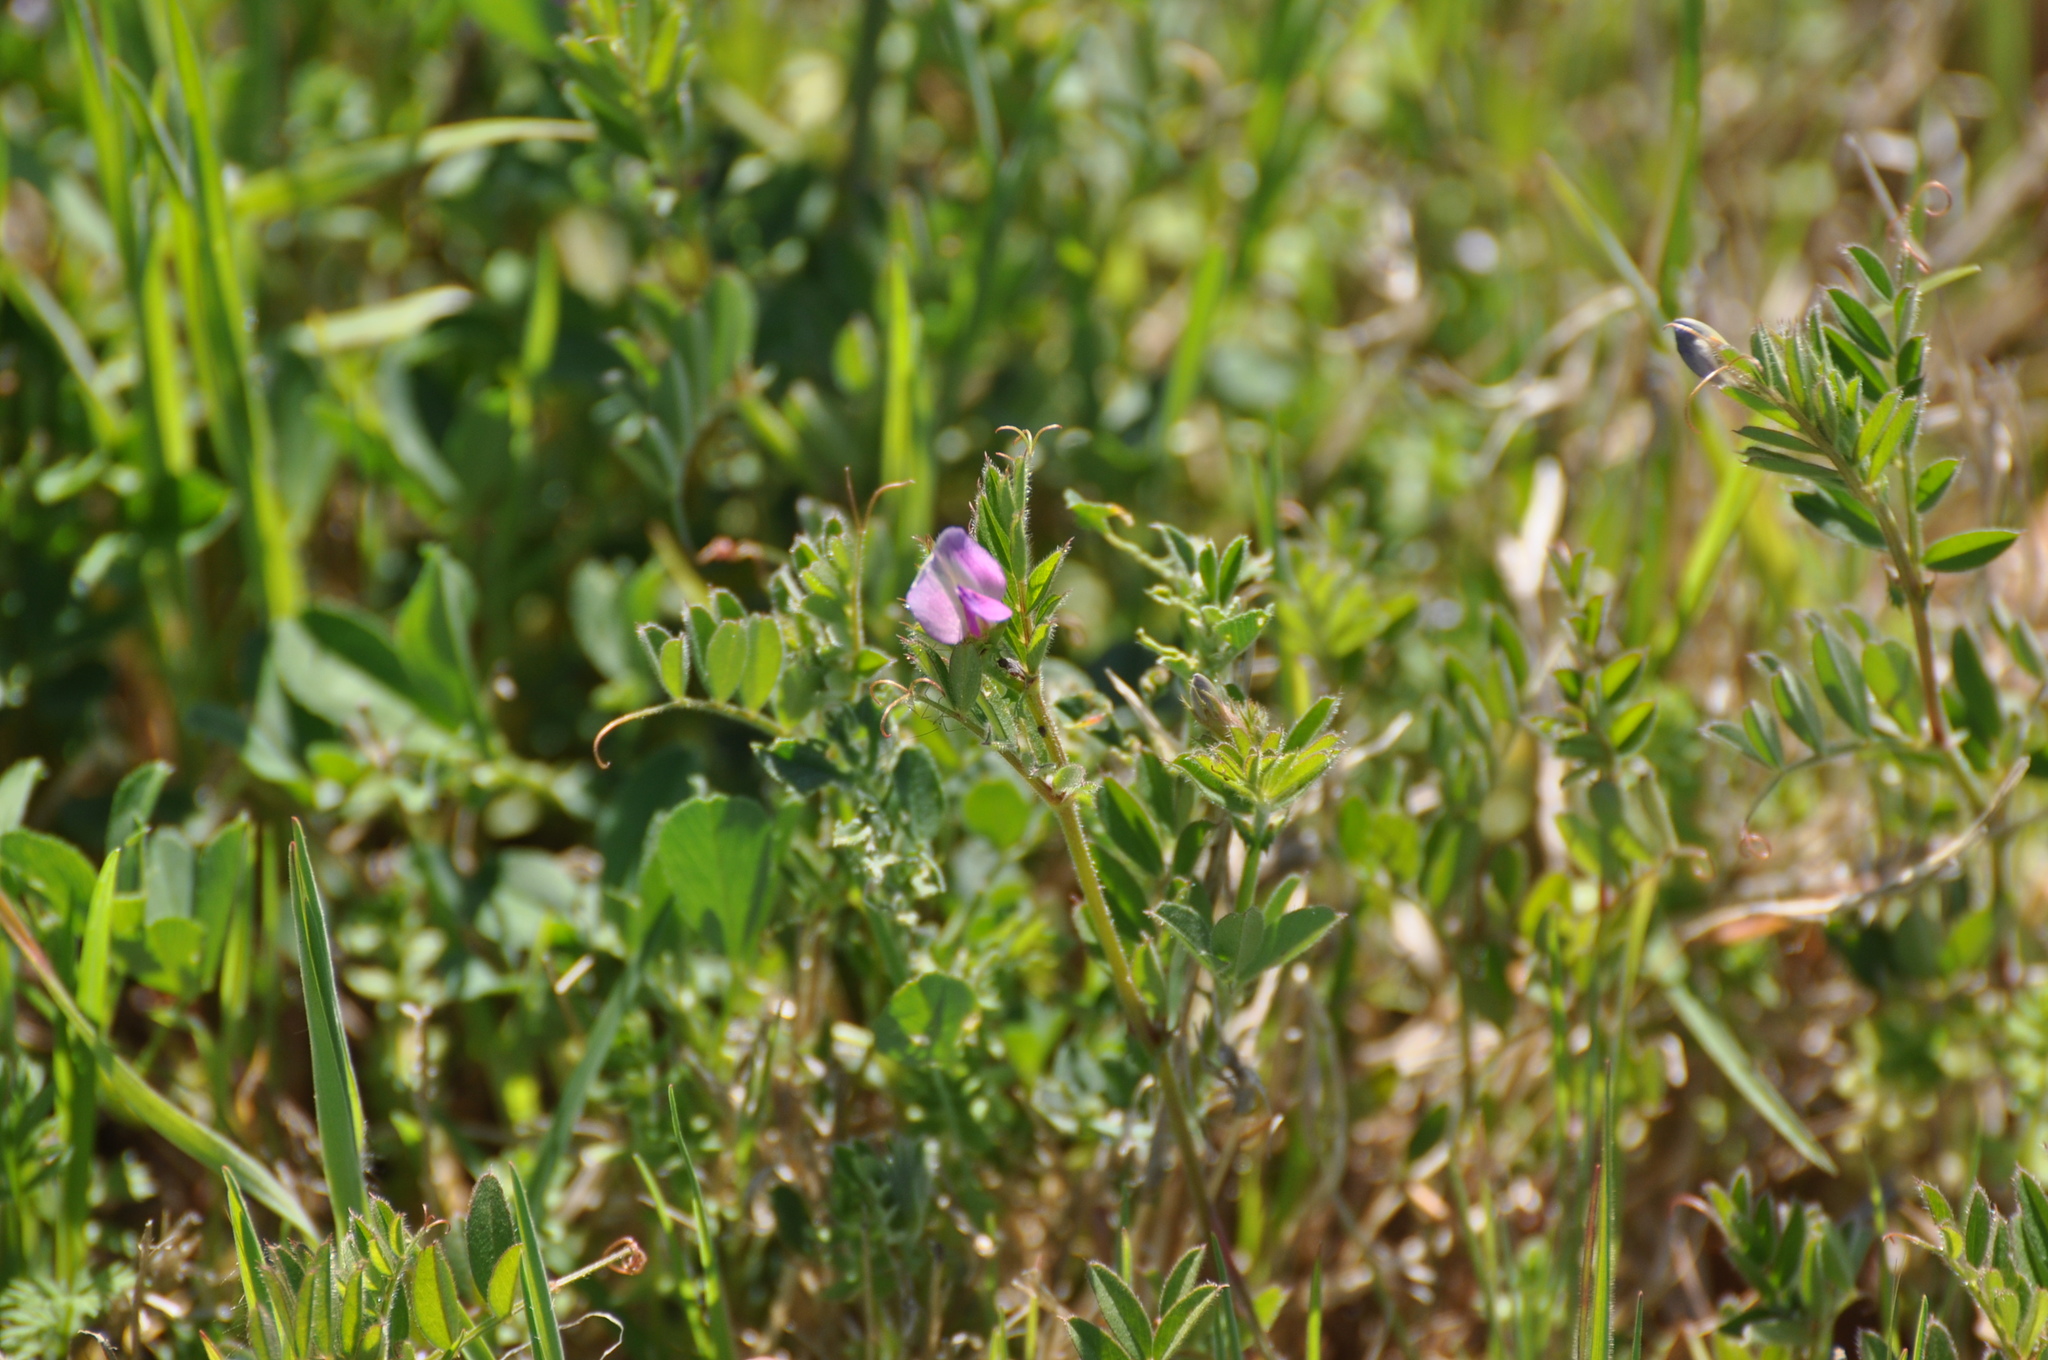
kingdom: Plantae
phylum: Tracheophyta
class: Magnoliopsida
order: Fabales
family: Fabaceae
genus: Vicia
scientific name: Vicia sativa
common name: Garden vetch
